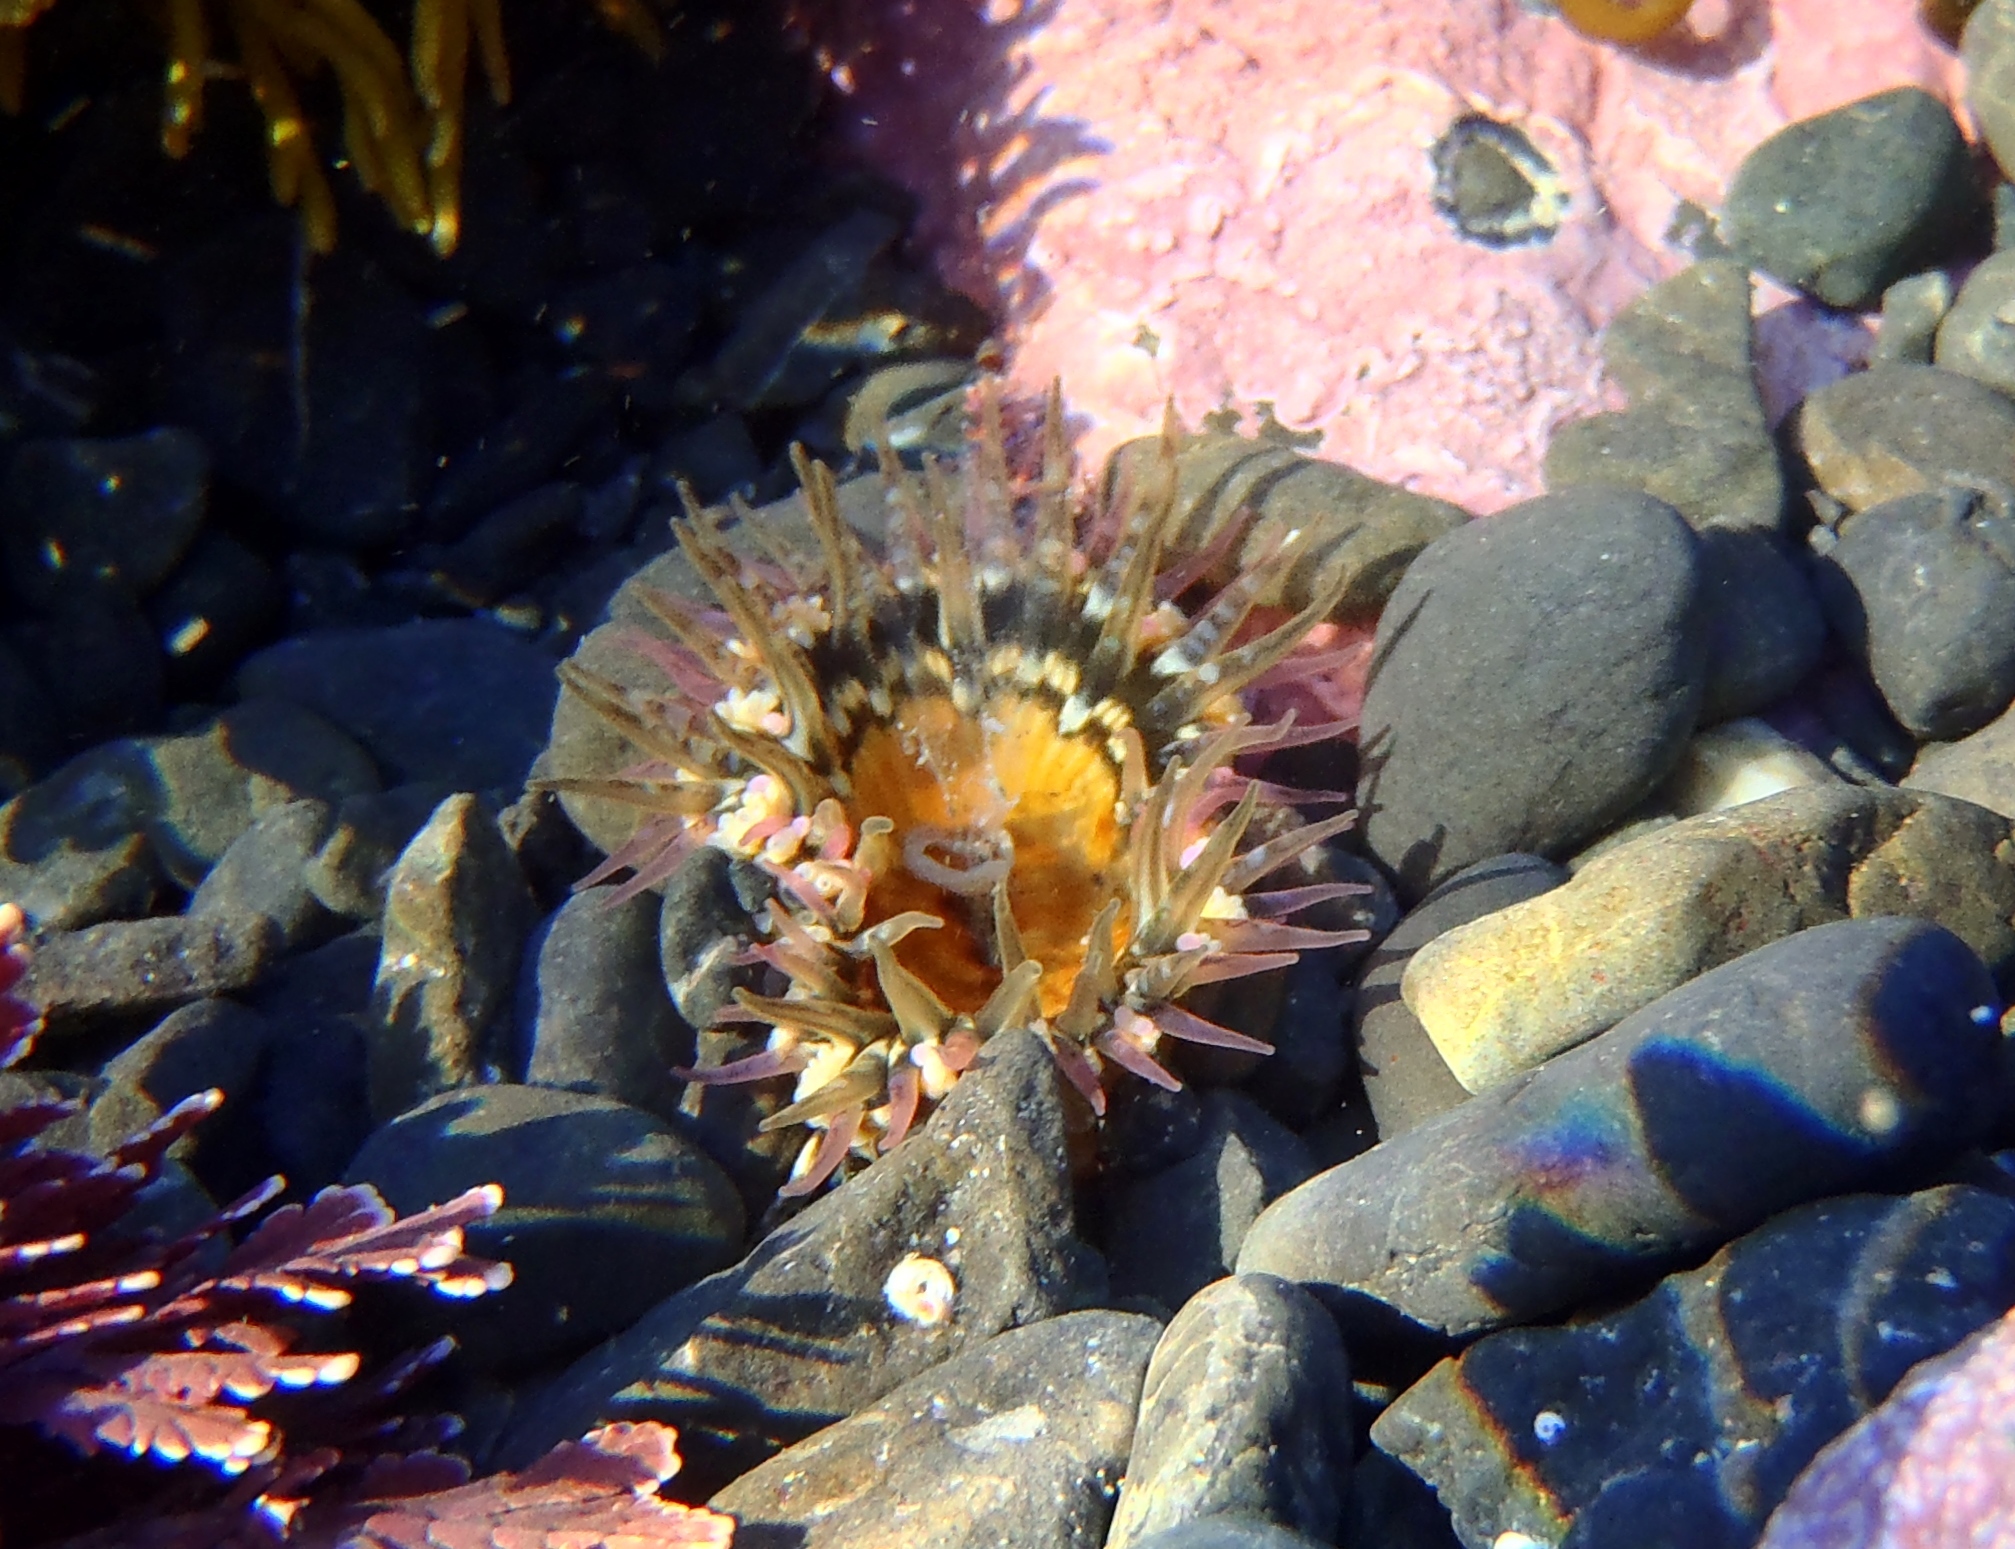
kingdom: Animalia
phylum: Cnidaria
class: Anthozoa
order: Actiniaria
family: Actiniidae
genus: Oulactis
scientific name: Oulactis muscosa
